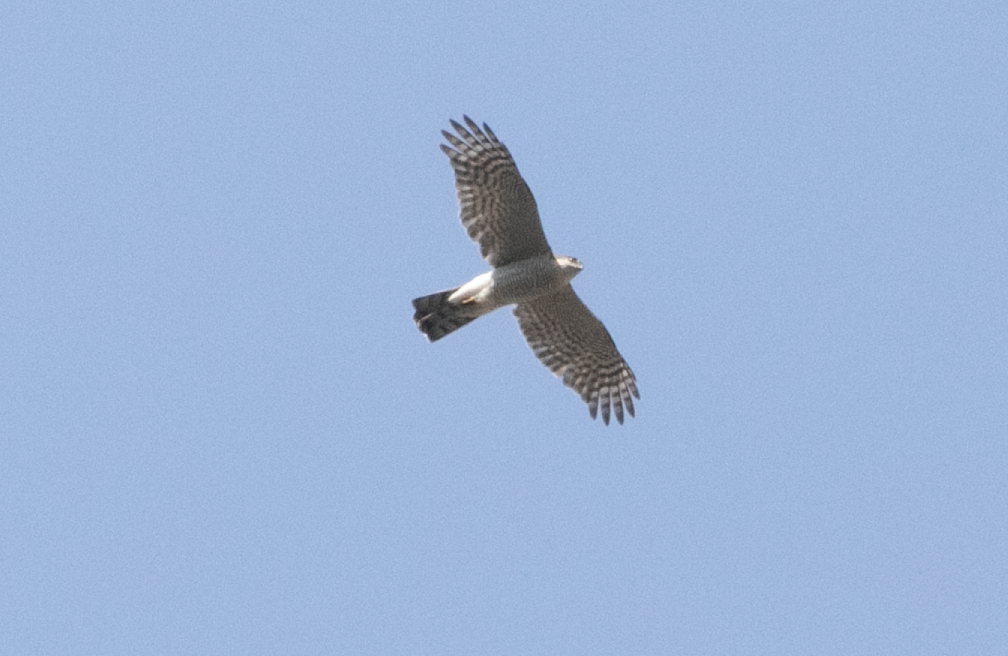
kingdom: Animalia
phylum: Chordata
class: Aves
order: Accipitriformes
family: Accipitridae
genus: Accipiter
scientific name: Accipiter nisus
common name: Eurasian sparrowhawk
